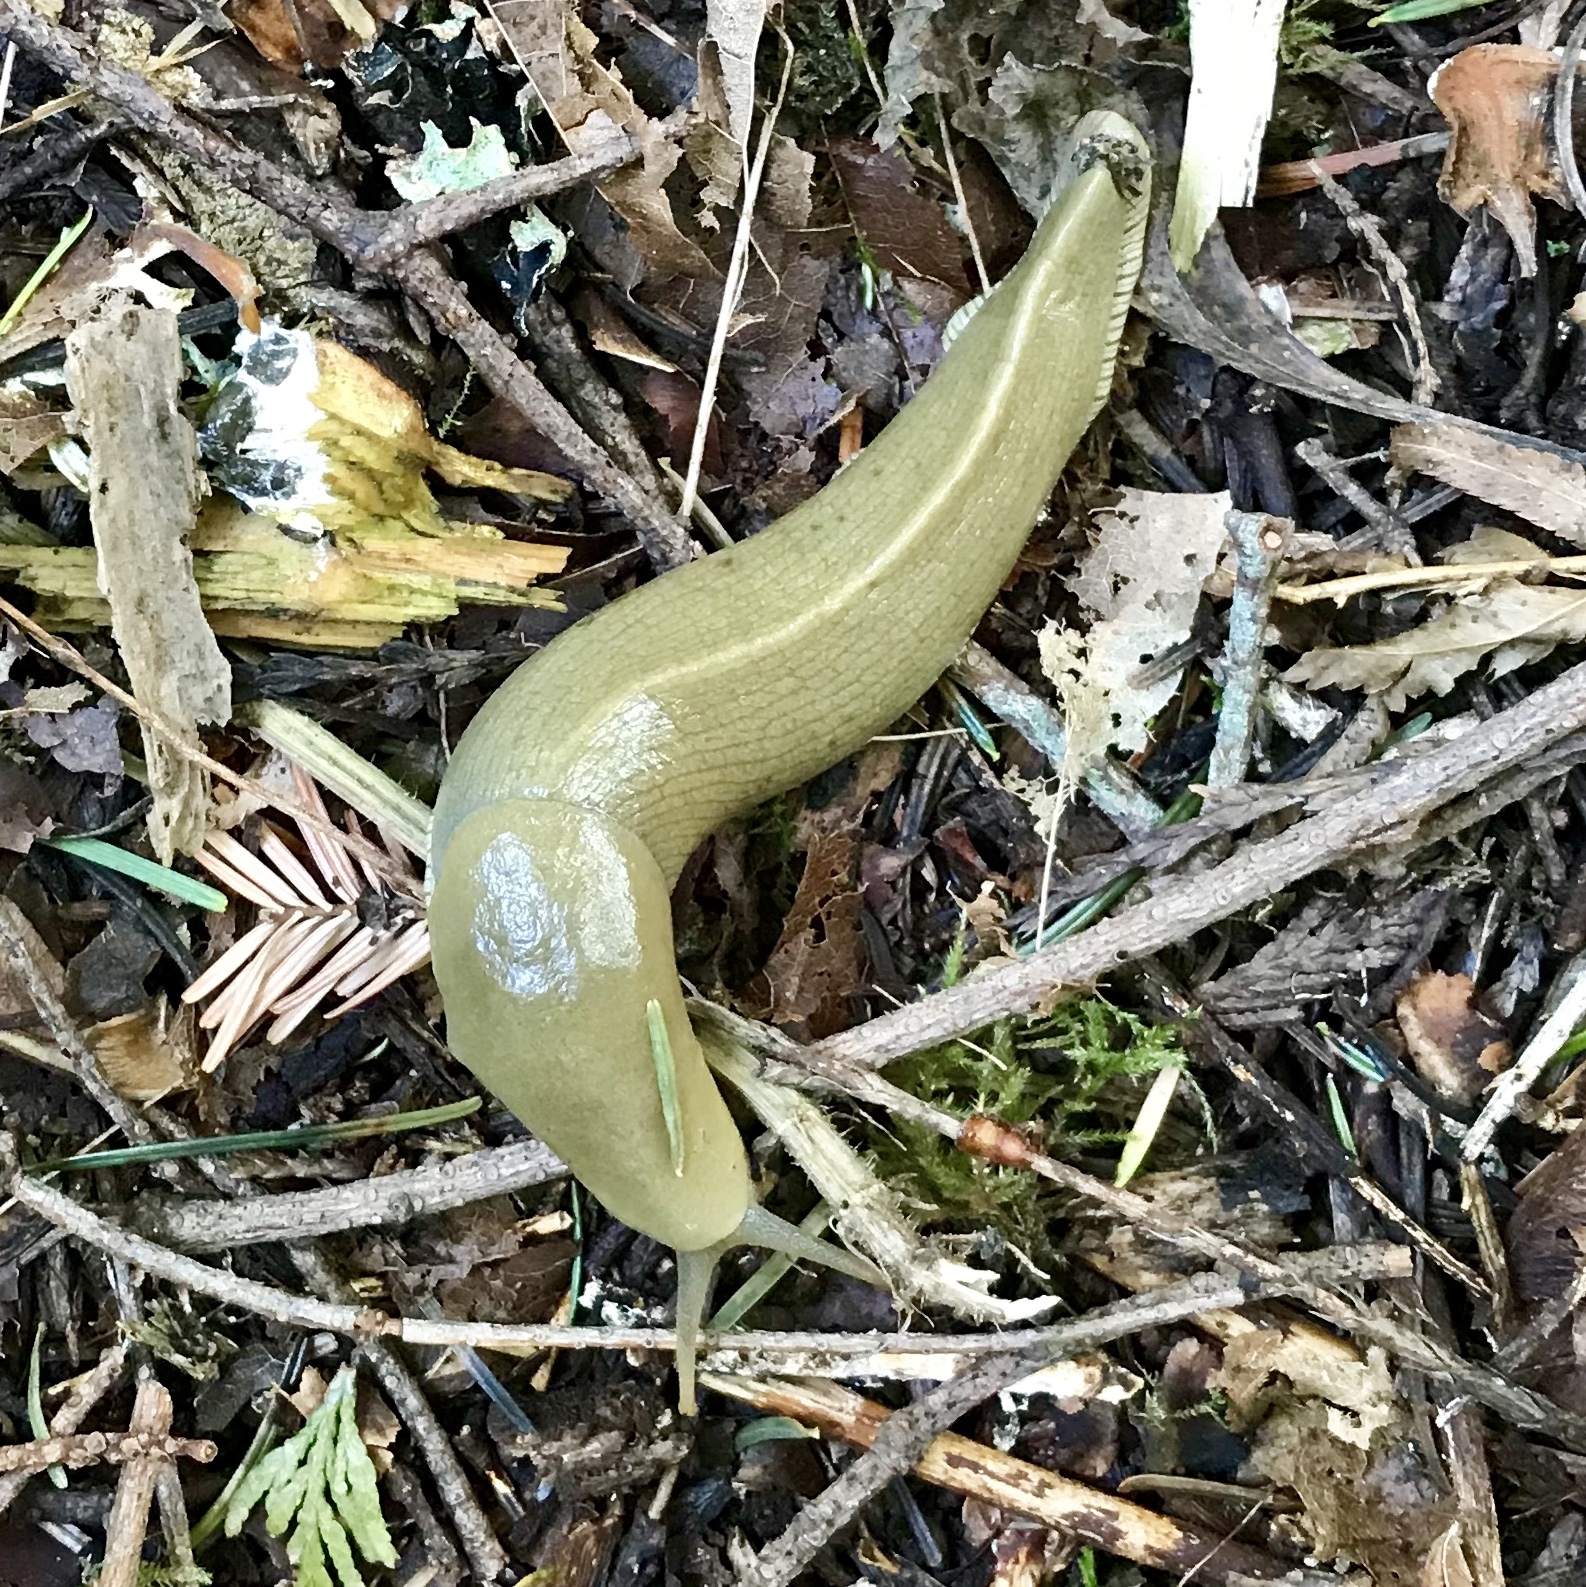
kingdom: Animalia
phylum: Mollusca
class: Gastropoda
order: Stylommatophora
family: Ariolimacidae
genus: Ariolimax
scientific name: Ariolimax columbianus
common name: Pacific banana slug
